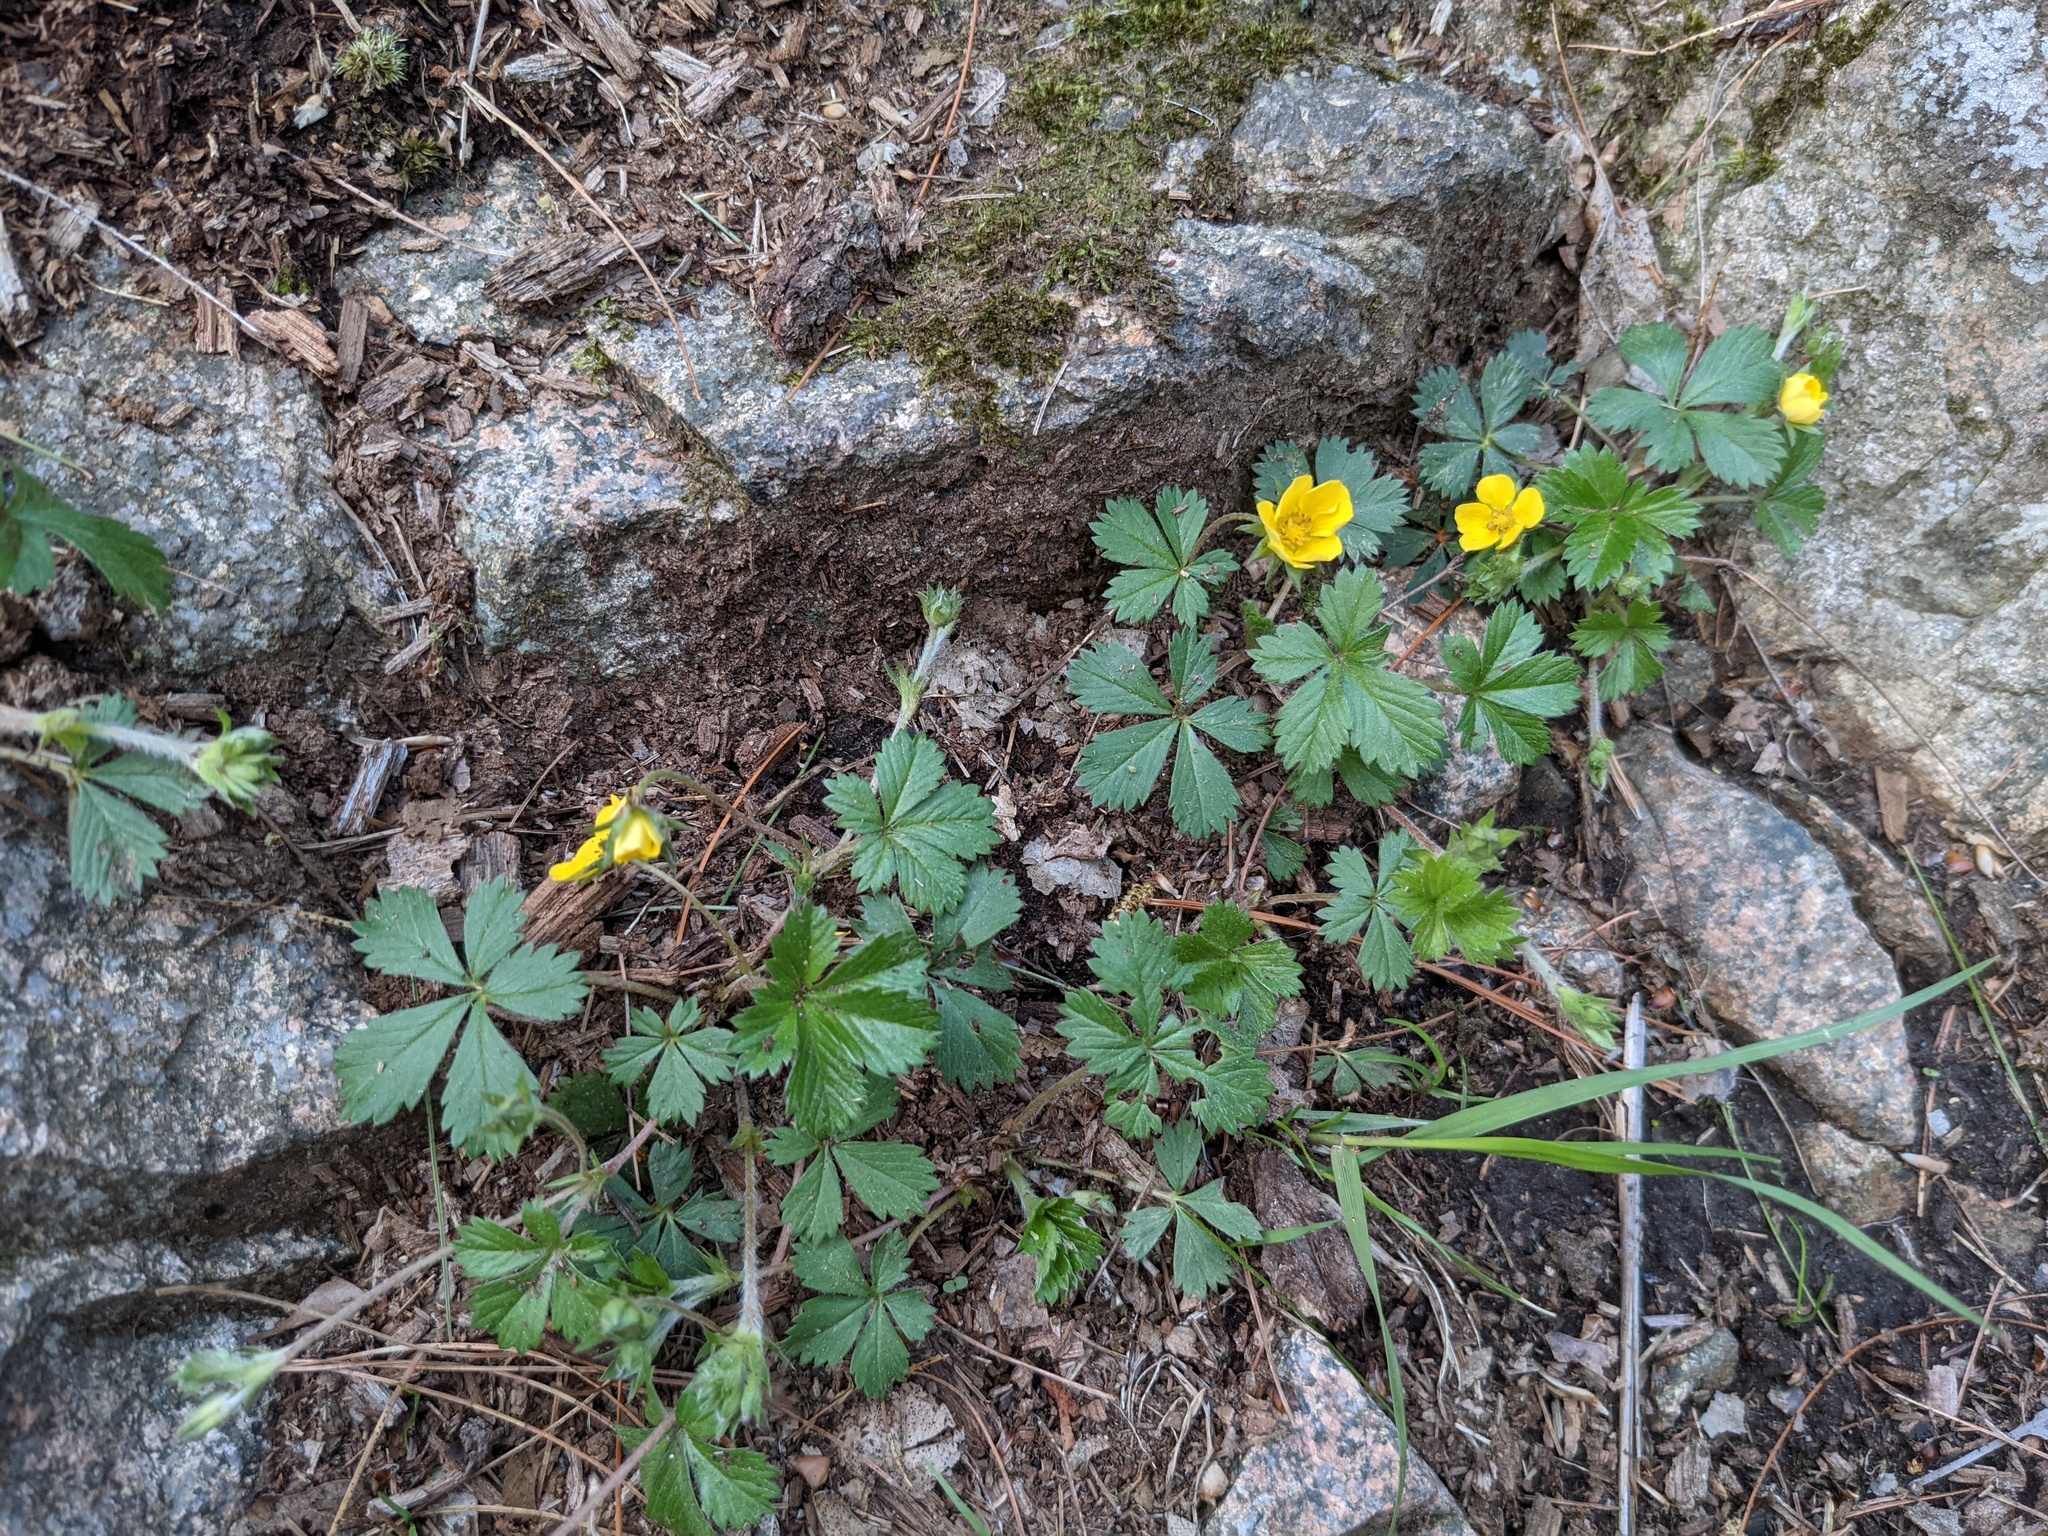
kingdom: Plantae
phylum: Tracheophyta
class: Magnoliopsida
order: Rosales
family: Rosaceae
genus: Potentilla
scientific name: Potentilla canadensis
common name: Canada cinquefoil
